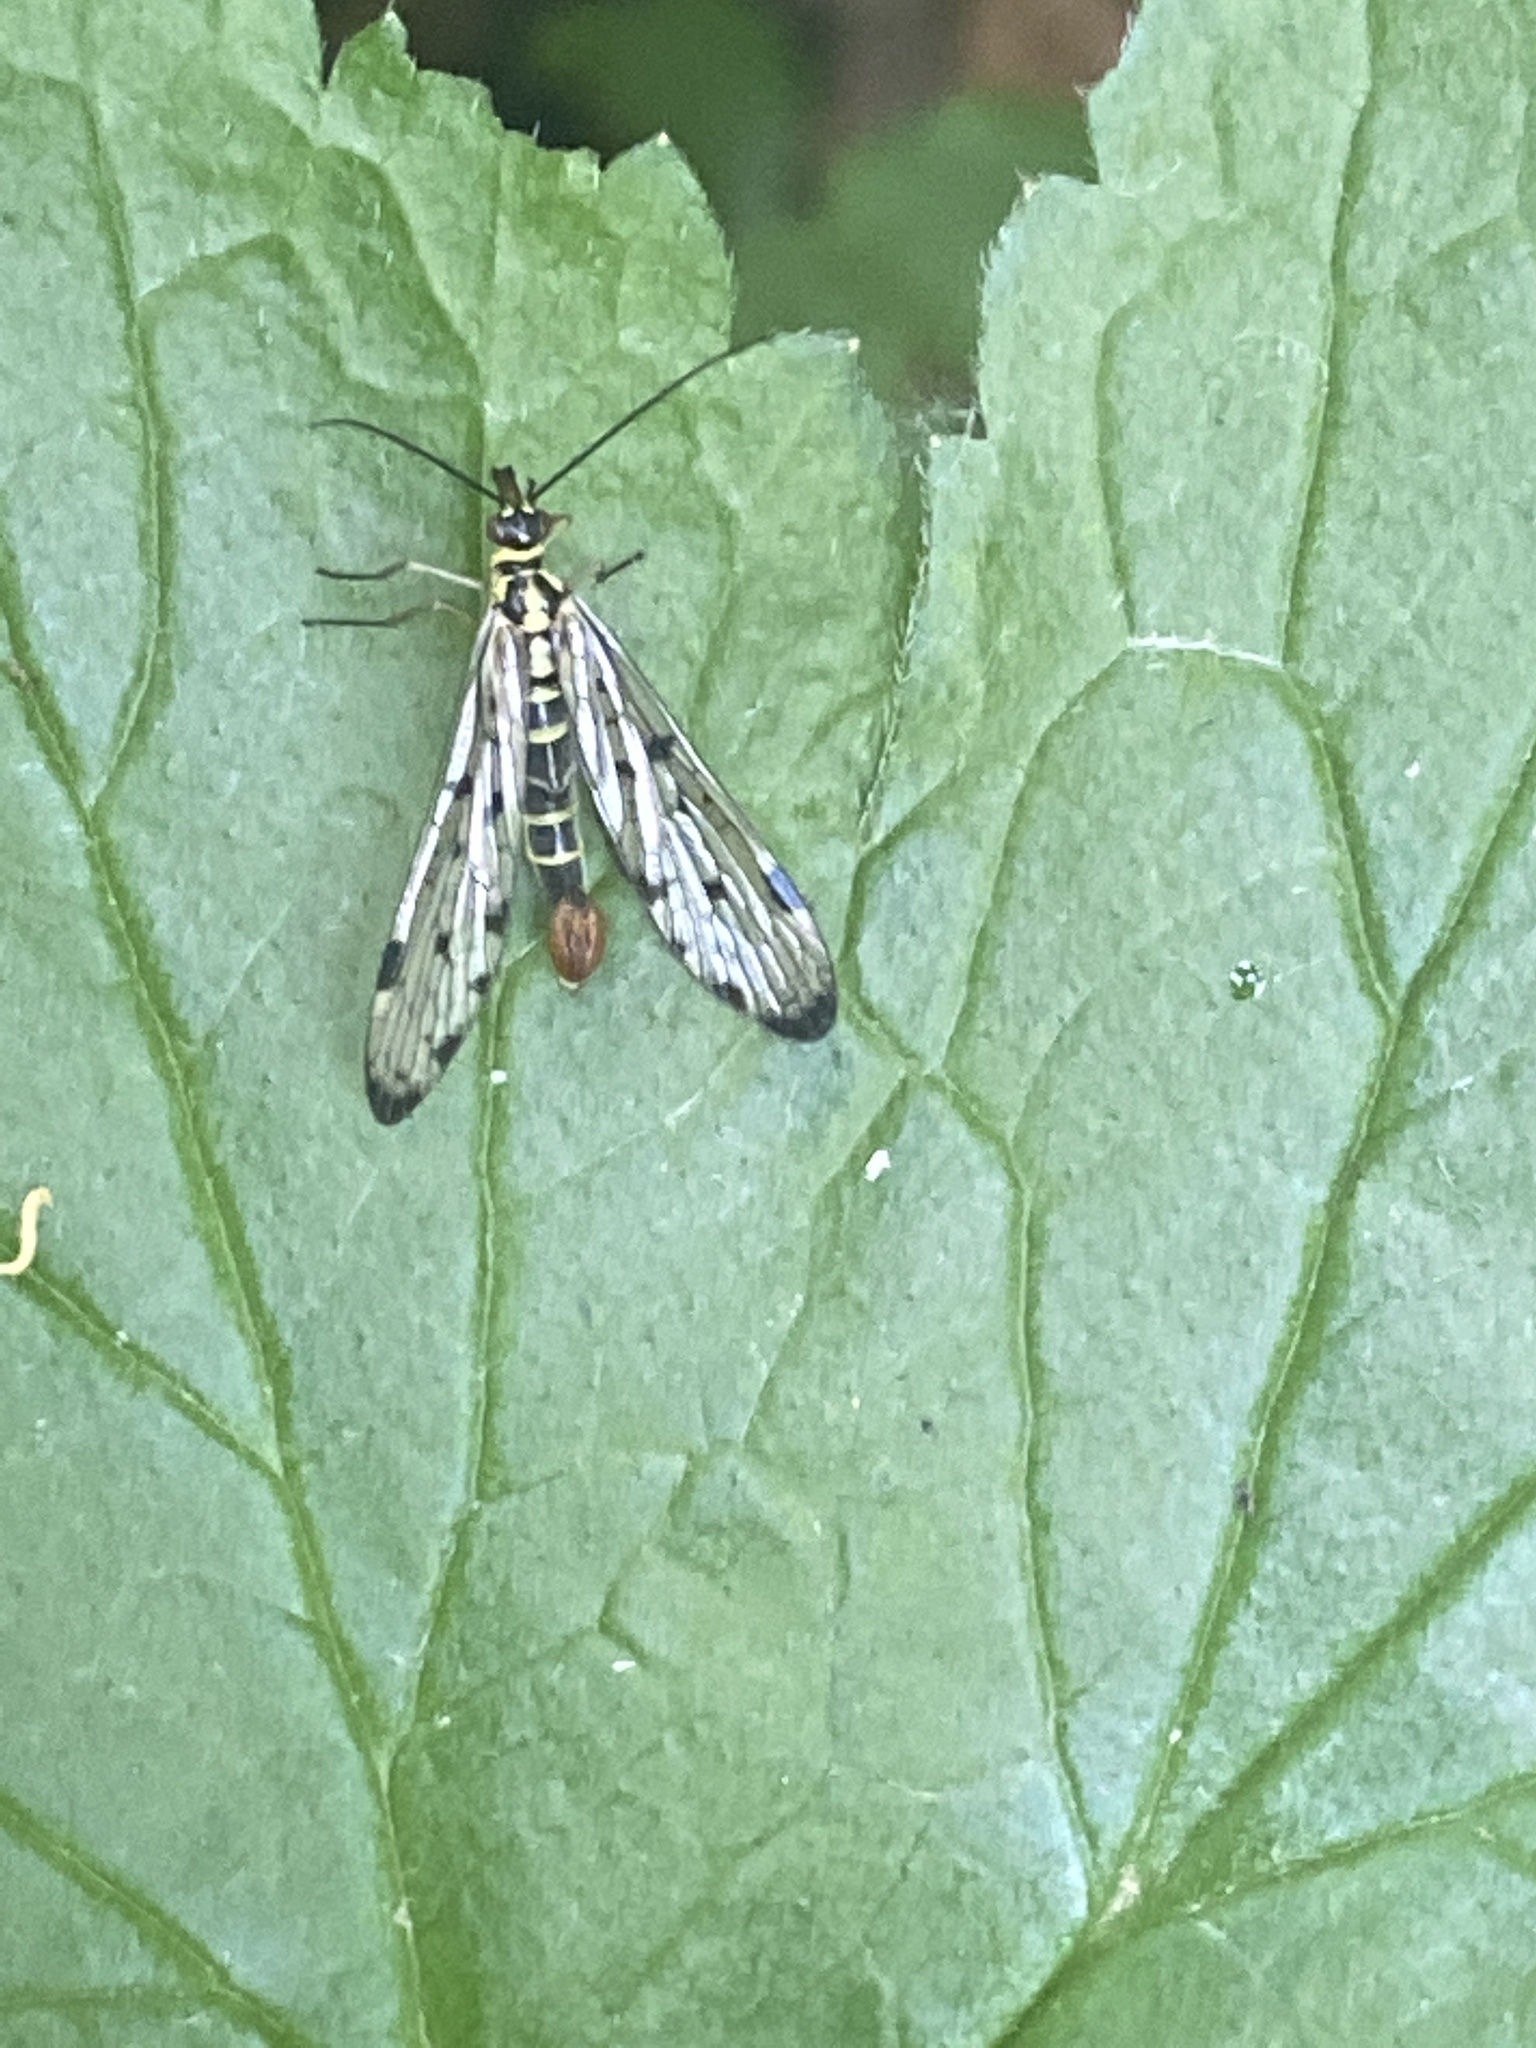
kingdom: Animalia
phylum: Arthropoda
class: Insecta
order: Mecoptera
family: Panorpidae
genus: Panorpa
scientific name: Panorpa germanica
